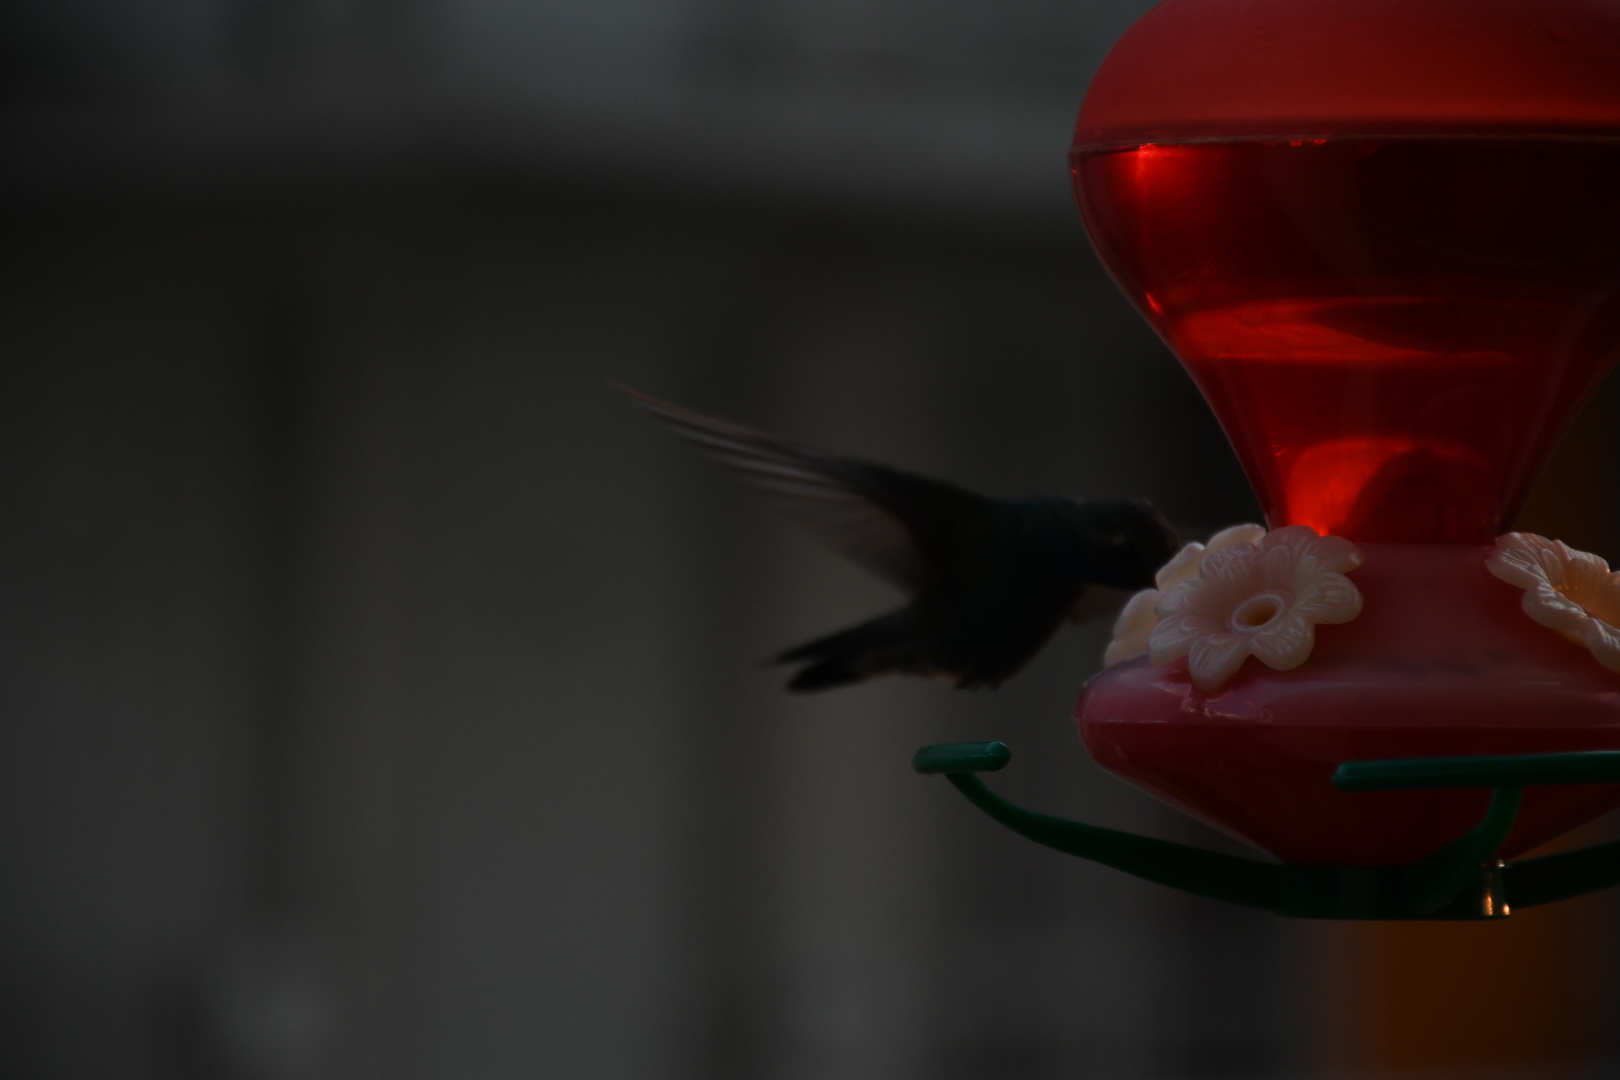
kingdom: Animalia
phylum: Chordata
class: Aves
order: Apodiformes
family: Trochilidae
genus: Cynanthus
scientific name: Cynanthus latirostris
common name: Broad-billed hummingbird
